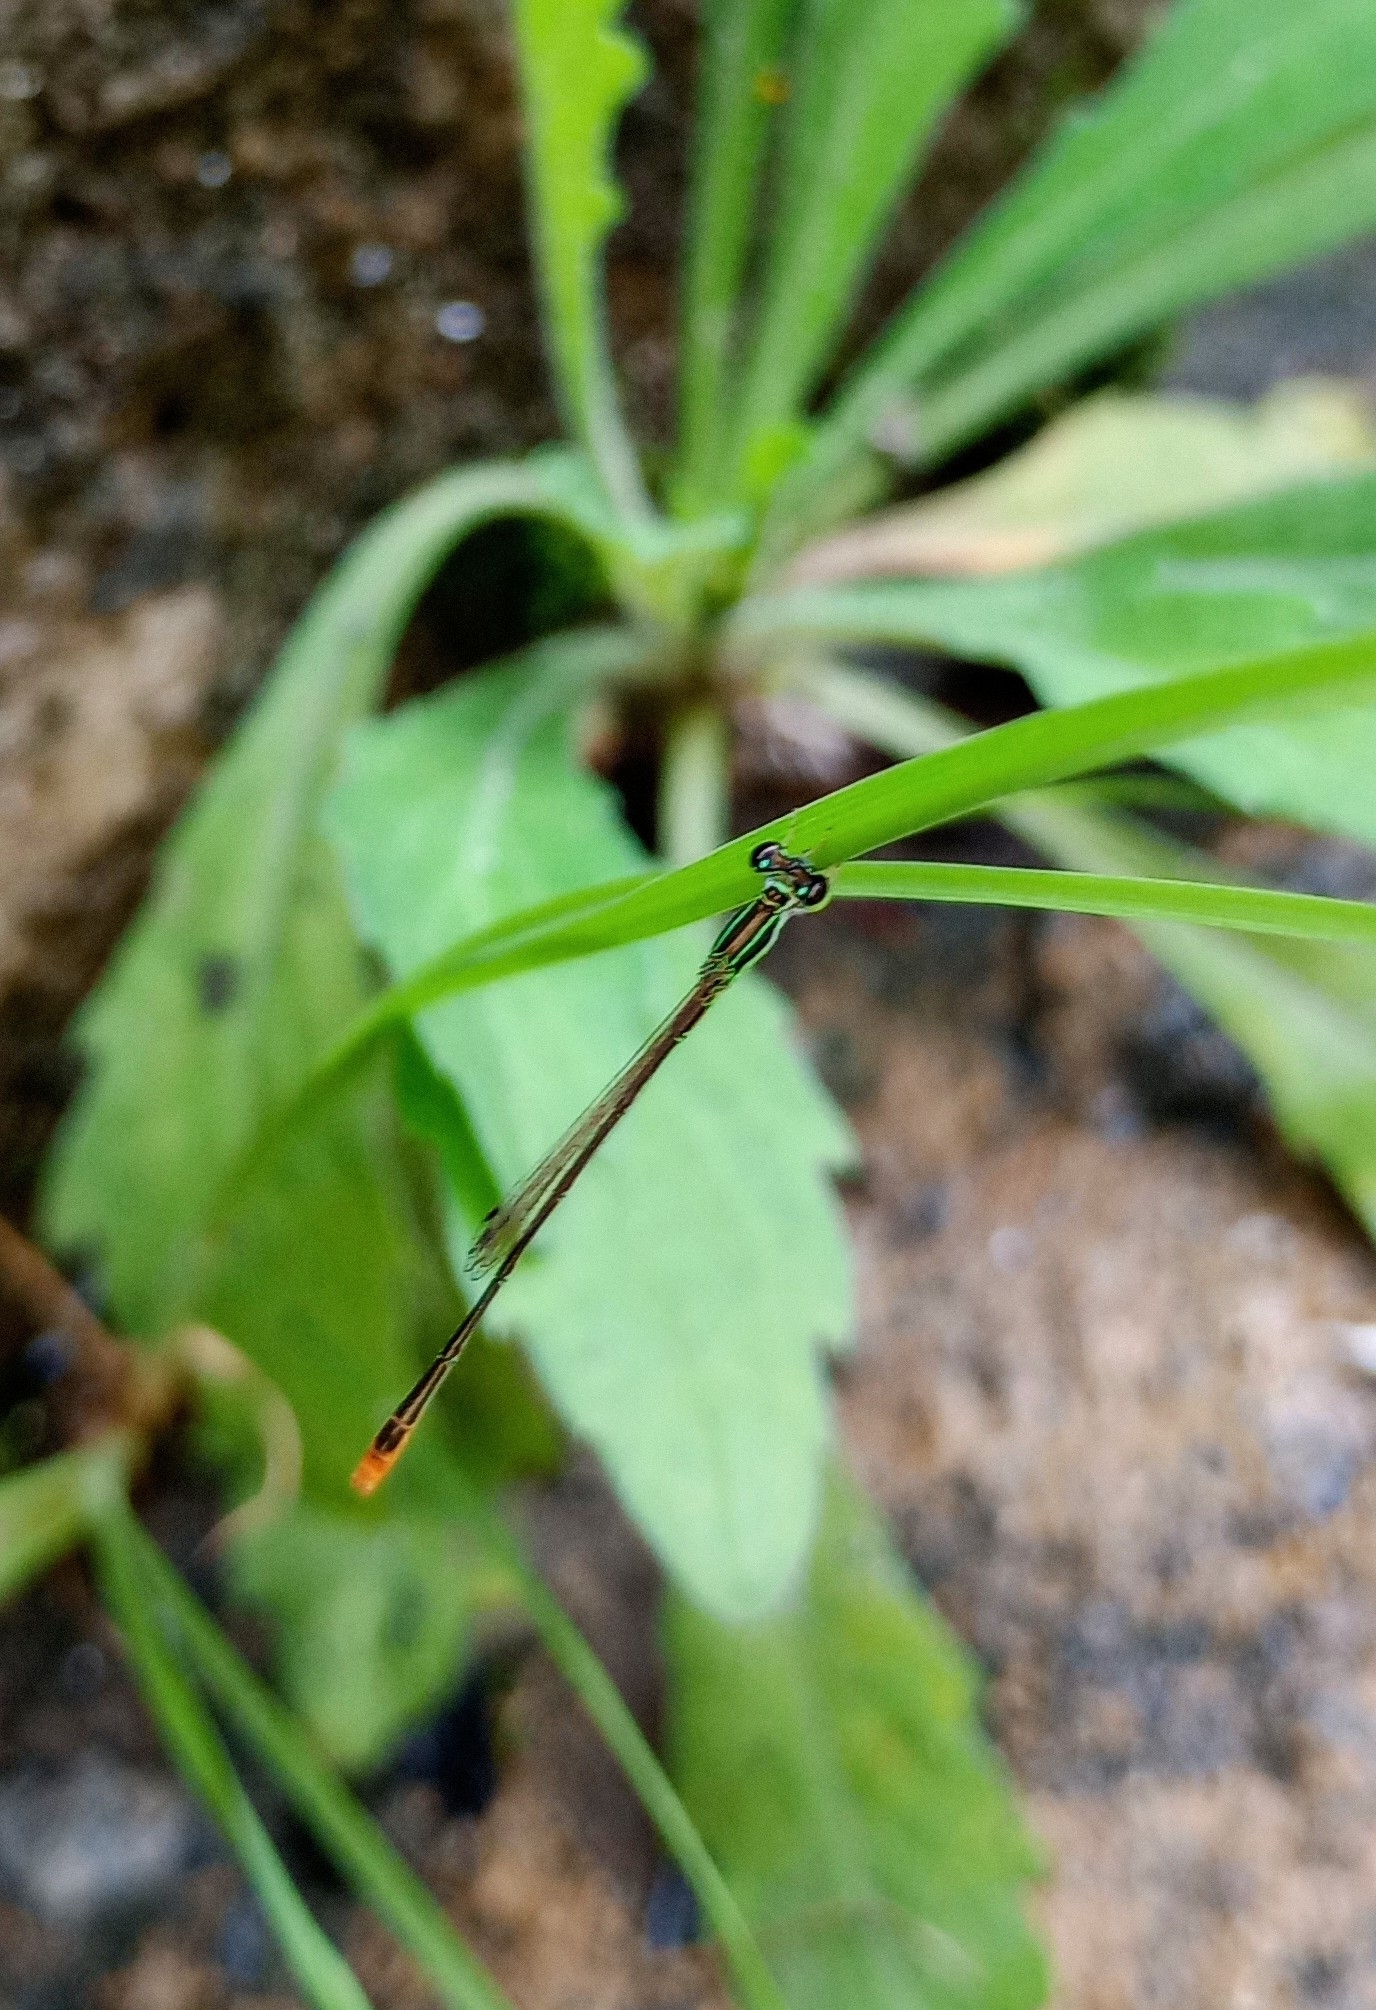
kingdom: Animalia
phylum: Arthropoda
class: Insecta
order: Odonata
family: Coenagrionidae
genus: Agriocnemis
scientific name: Agriocnemis pygmaea
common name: Pygmy wisp
